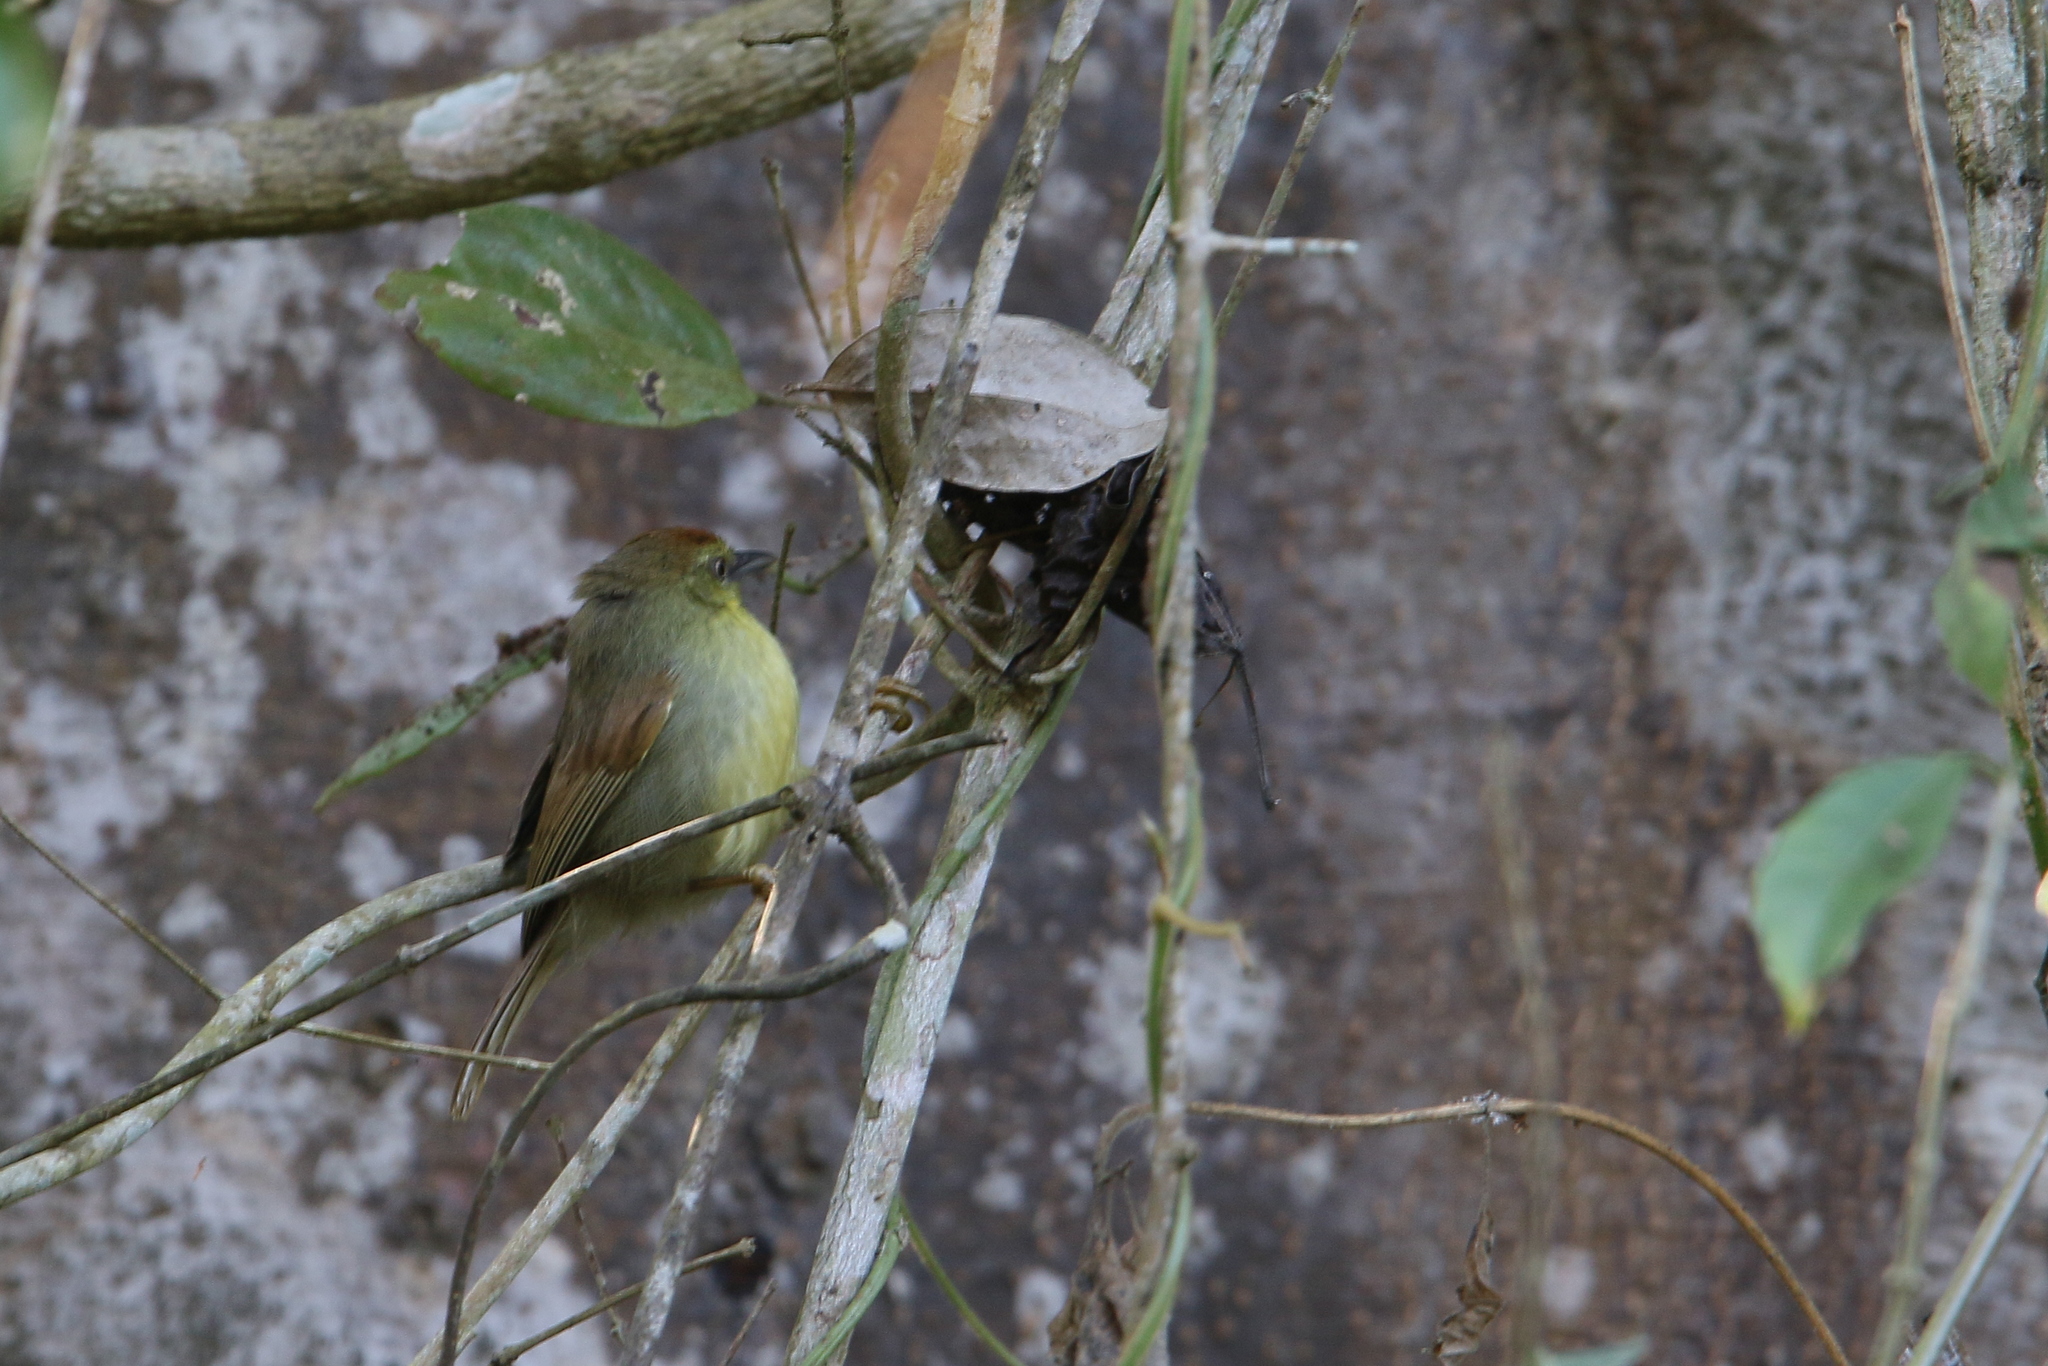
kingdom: Animalia
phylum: Chordata
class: Aves
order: Passeriformes
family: Timaliidae
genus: Macronus
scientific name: Macronus gularis
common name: Striped tit-babbler
